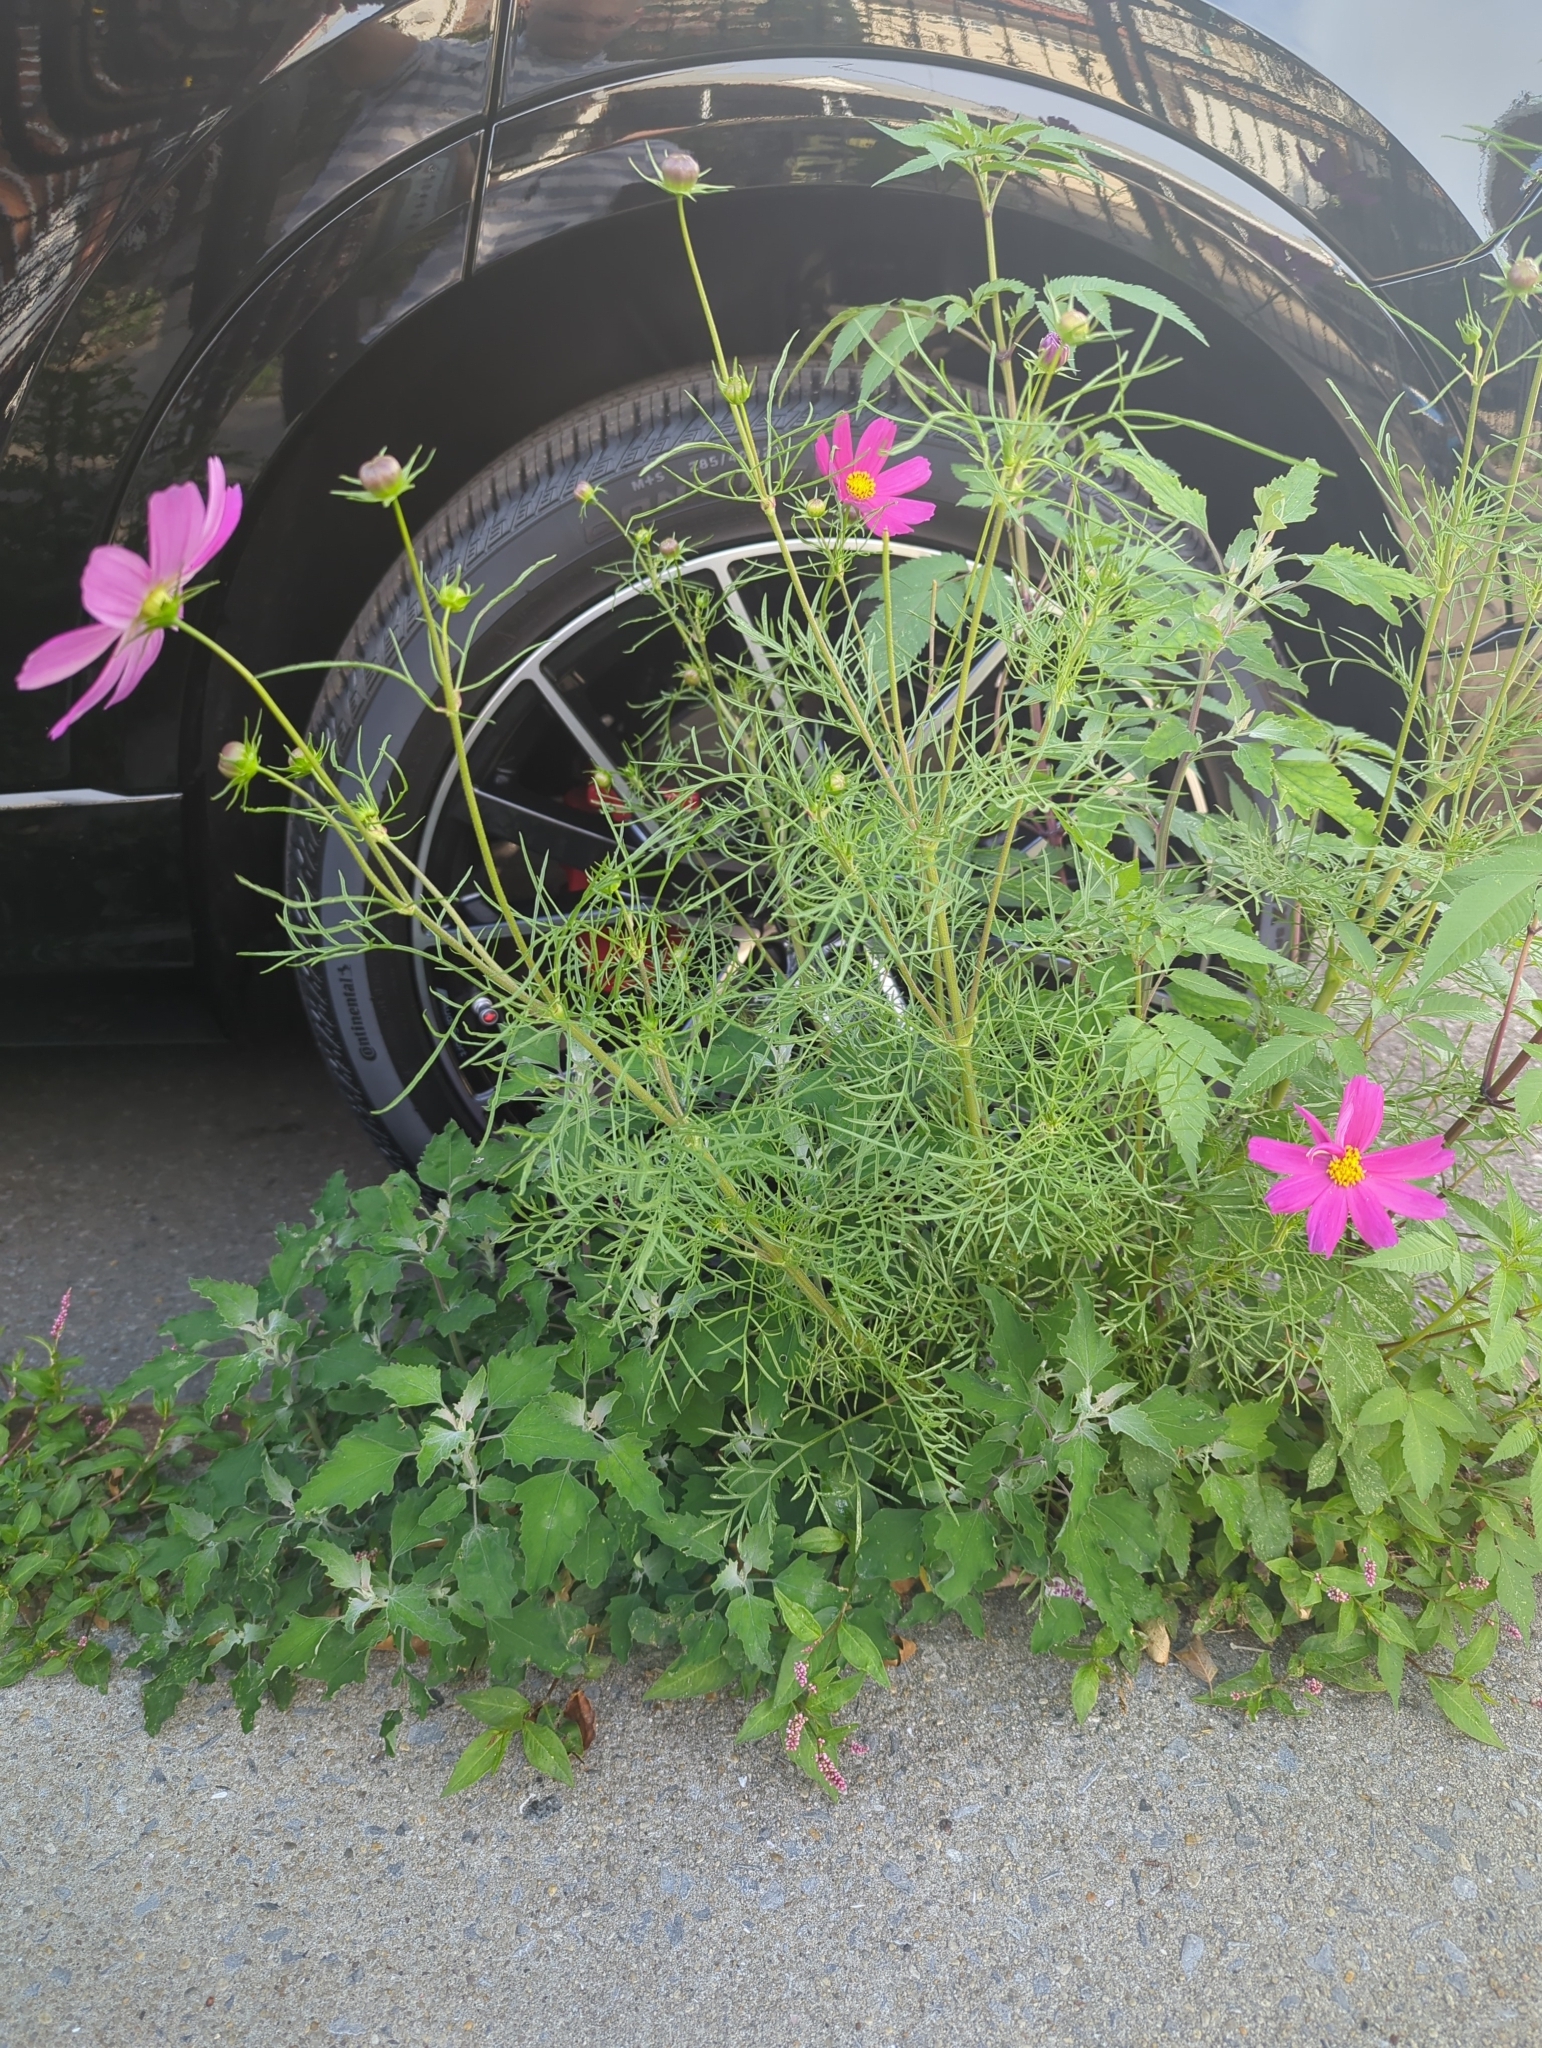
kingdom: Plantae
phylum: Tracheophyta
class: Magnoliopsida
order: Asterales
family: Asteraceae
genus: Cosmos
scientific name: Cosmos bipinnatus
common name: Garden cosmos
